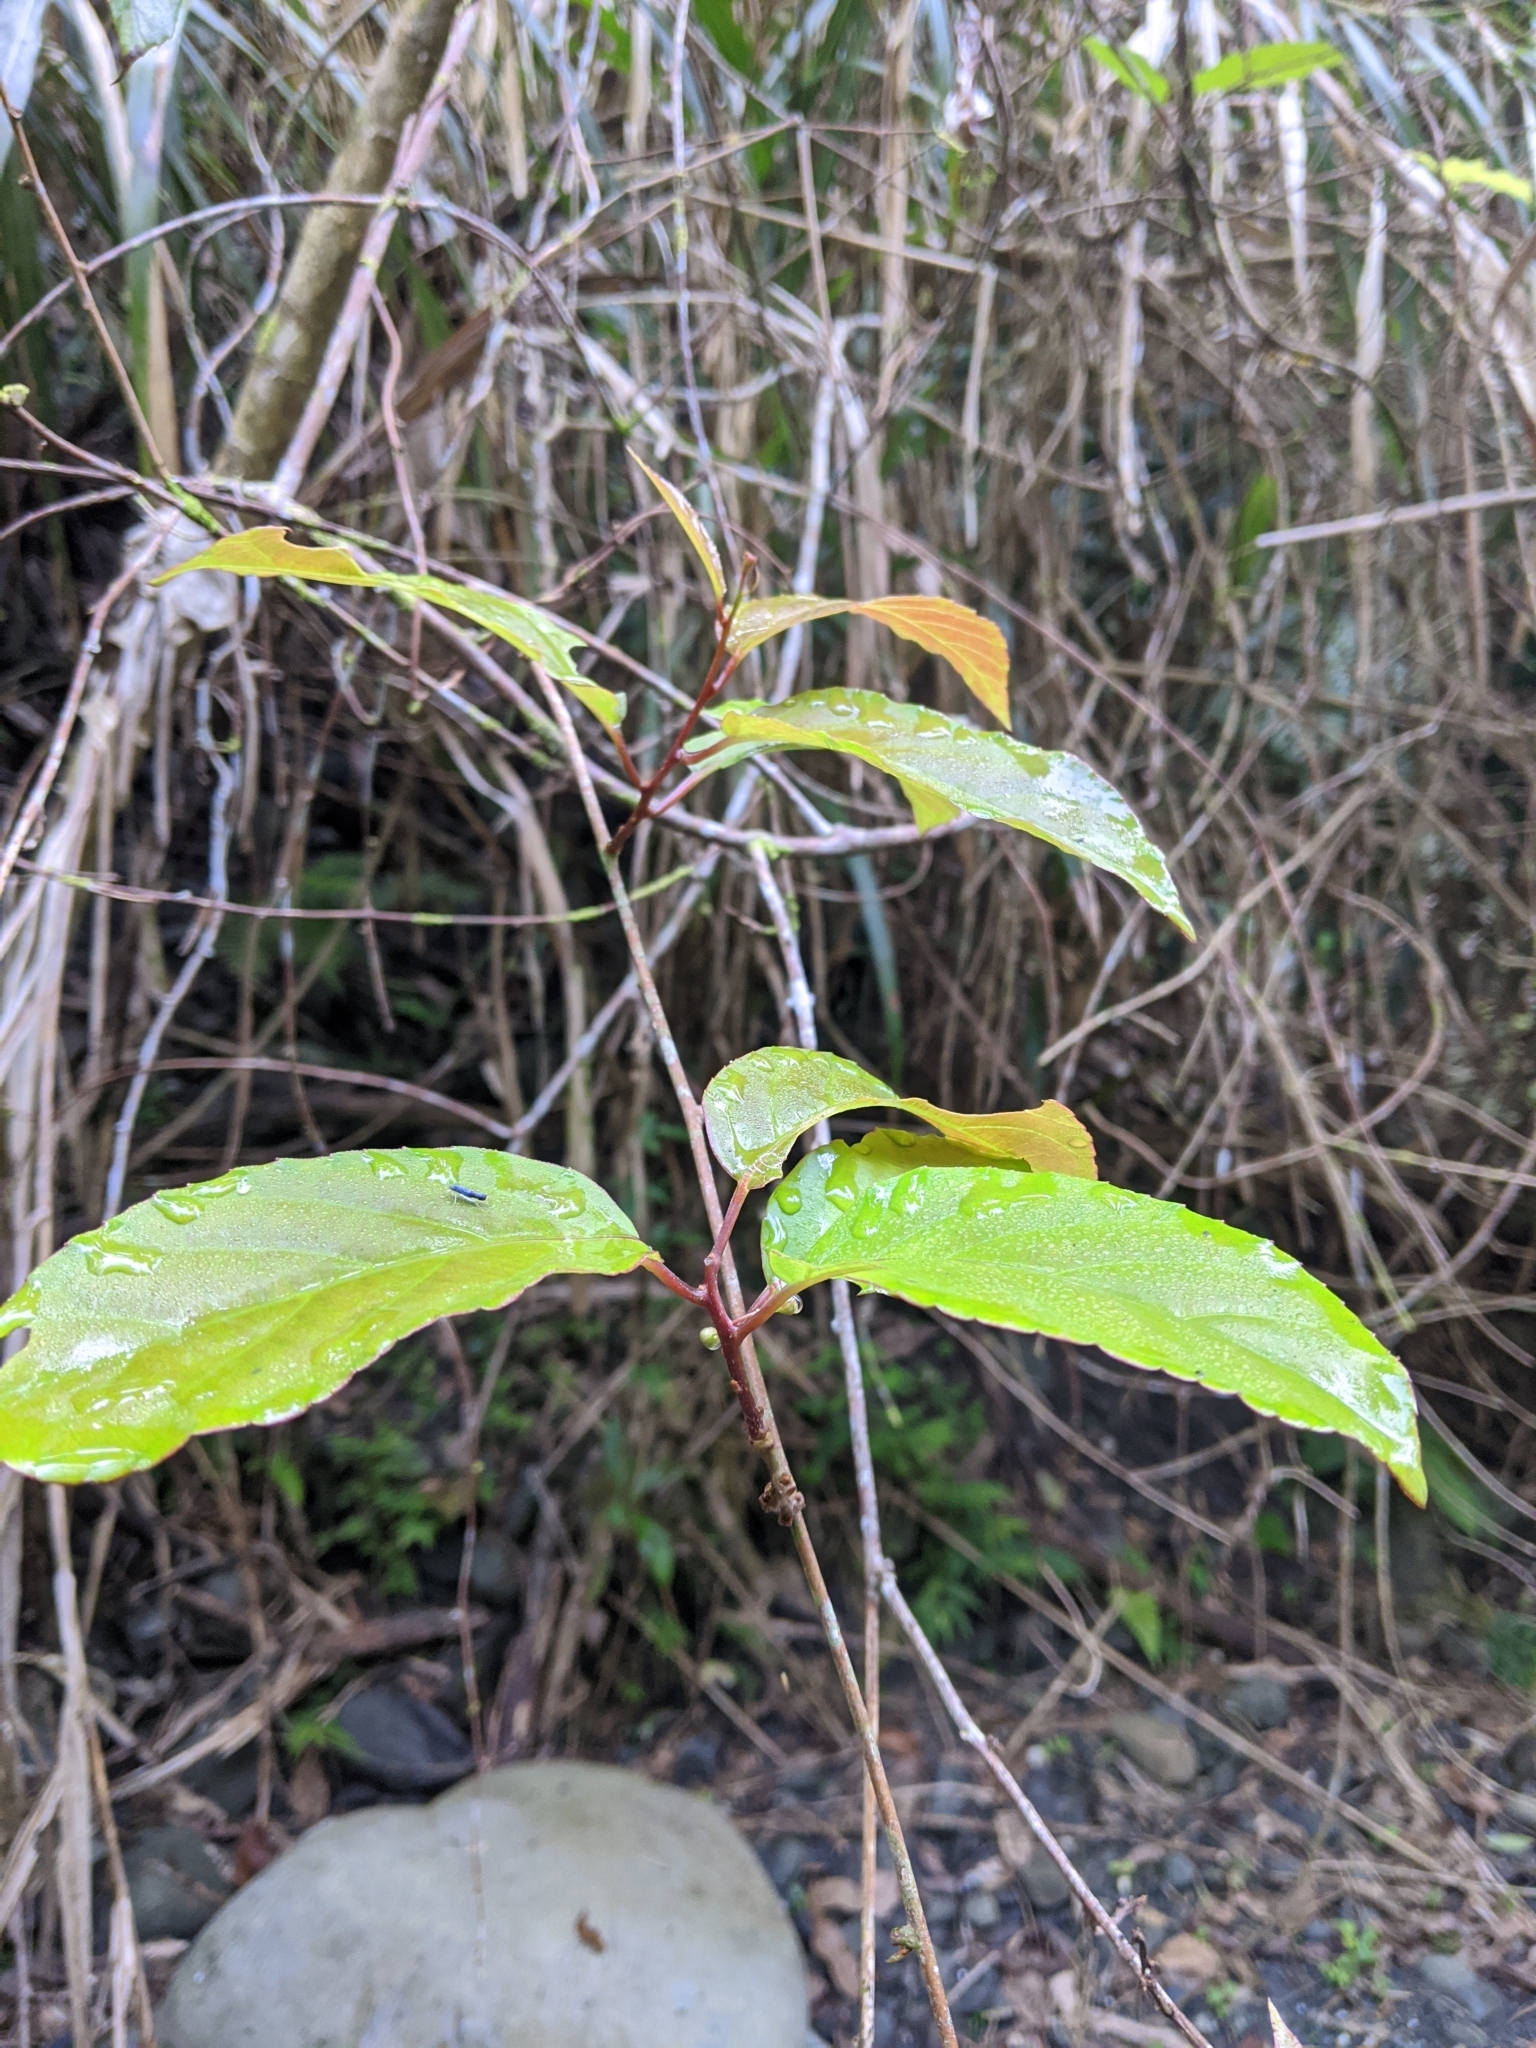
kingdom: Plantae
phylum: Tracheophyta
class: Magnoliopsida
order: Ericales
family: Actinidiaceae
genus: Actinidia
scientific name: Actinidia callosa
